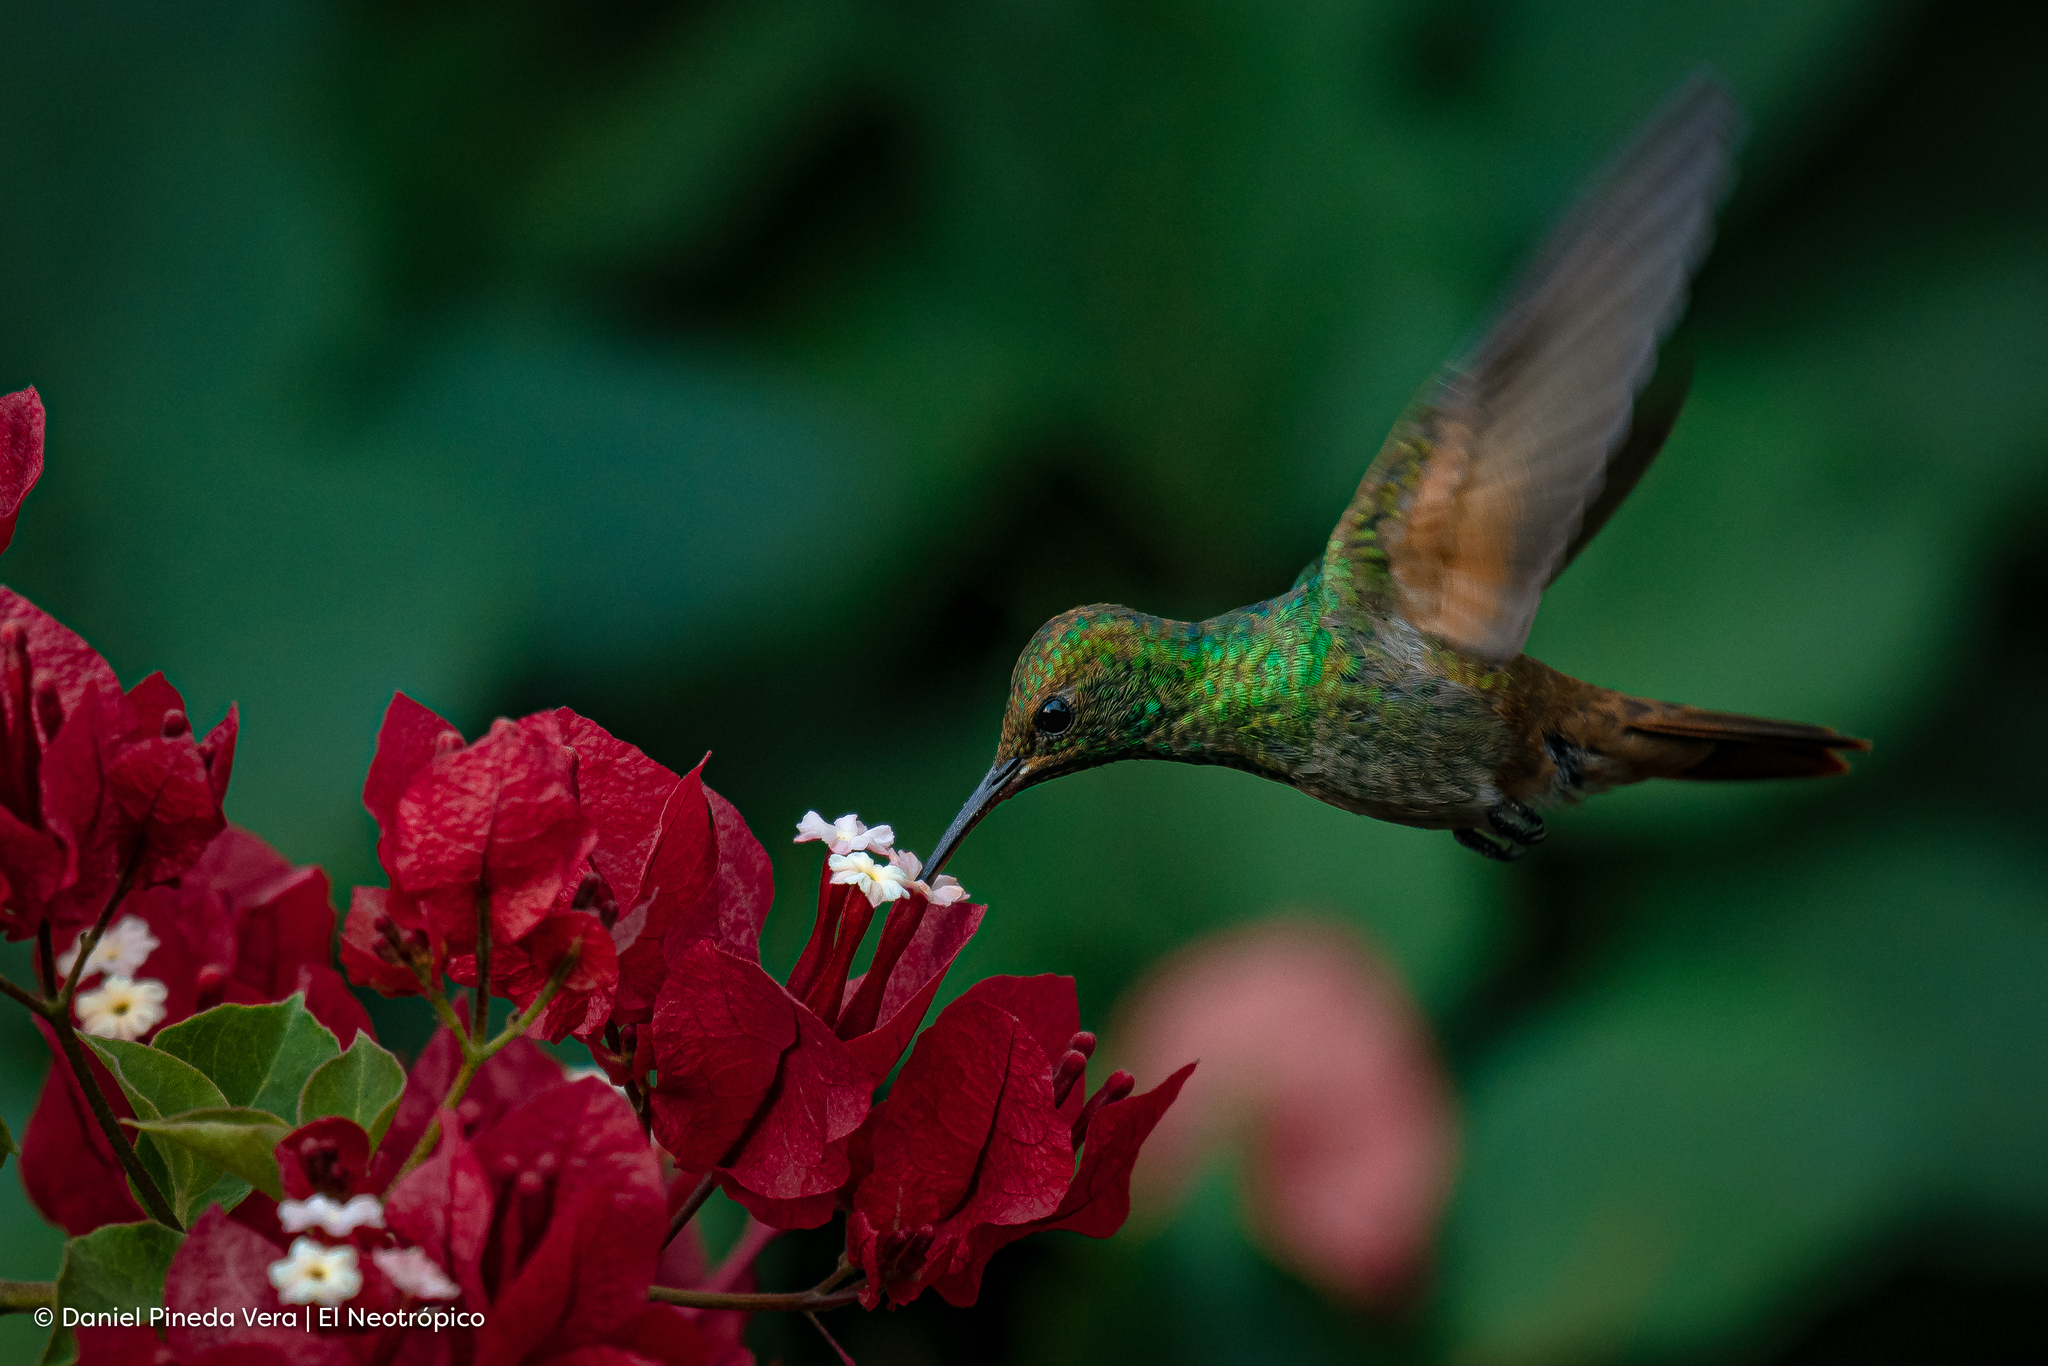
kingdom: Animalia
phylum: Chordata
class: Aves
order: Apodiformes
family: Trochilidae
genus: Saucerottia
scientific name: Saucerottia beryllina
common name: Berylline hummingbird
